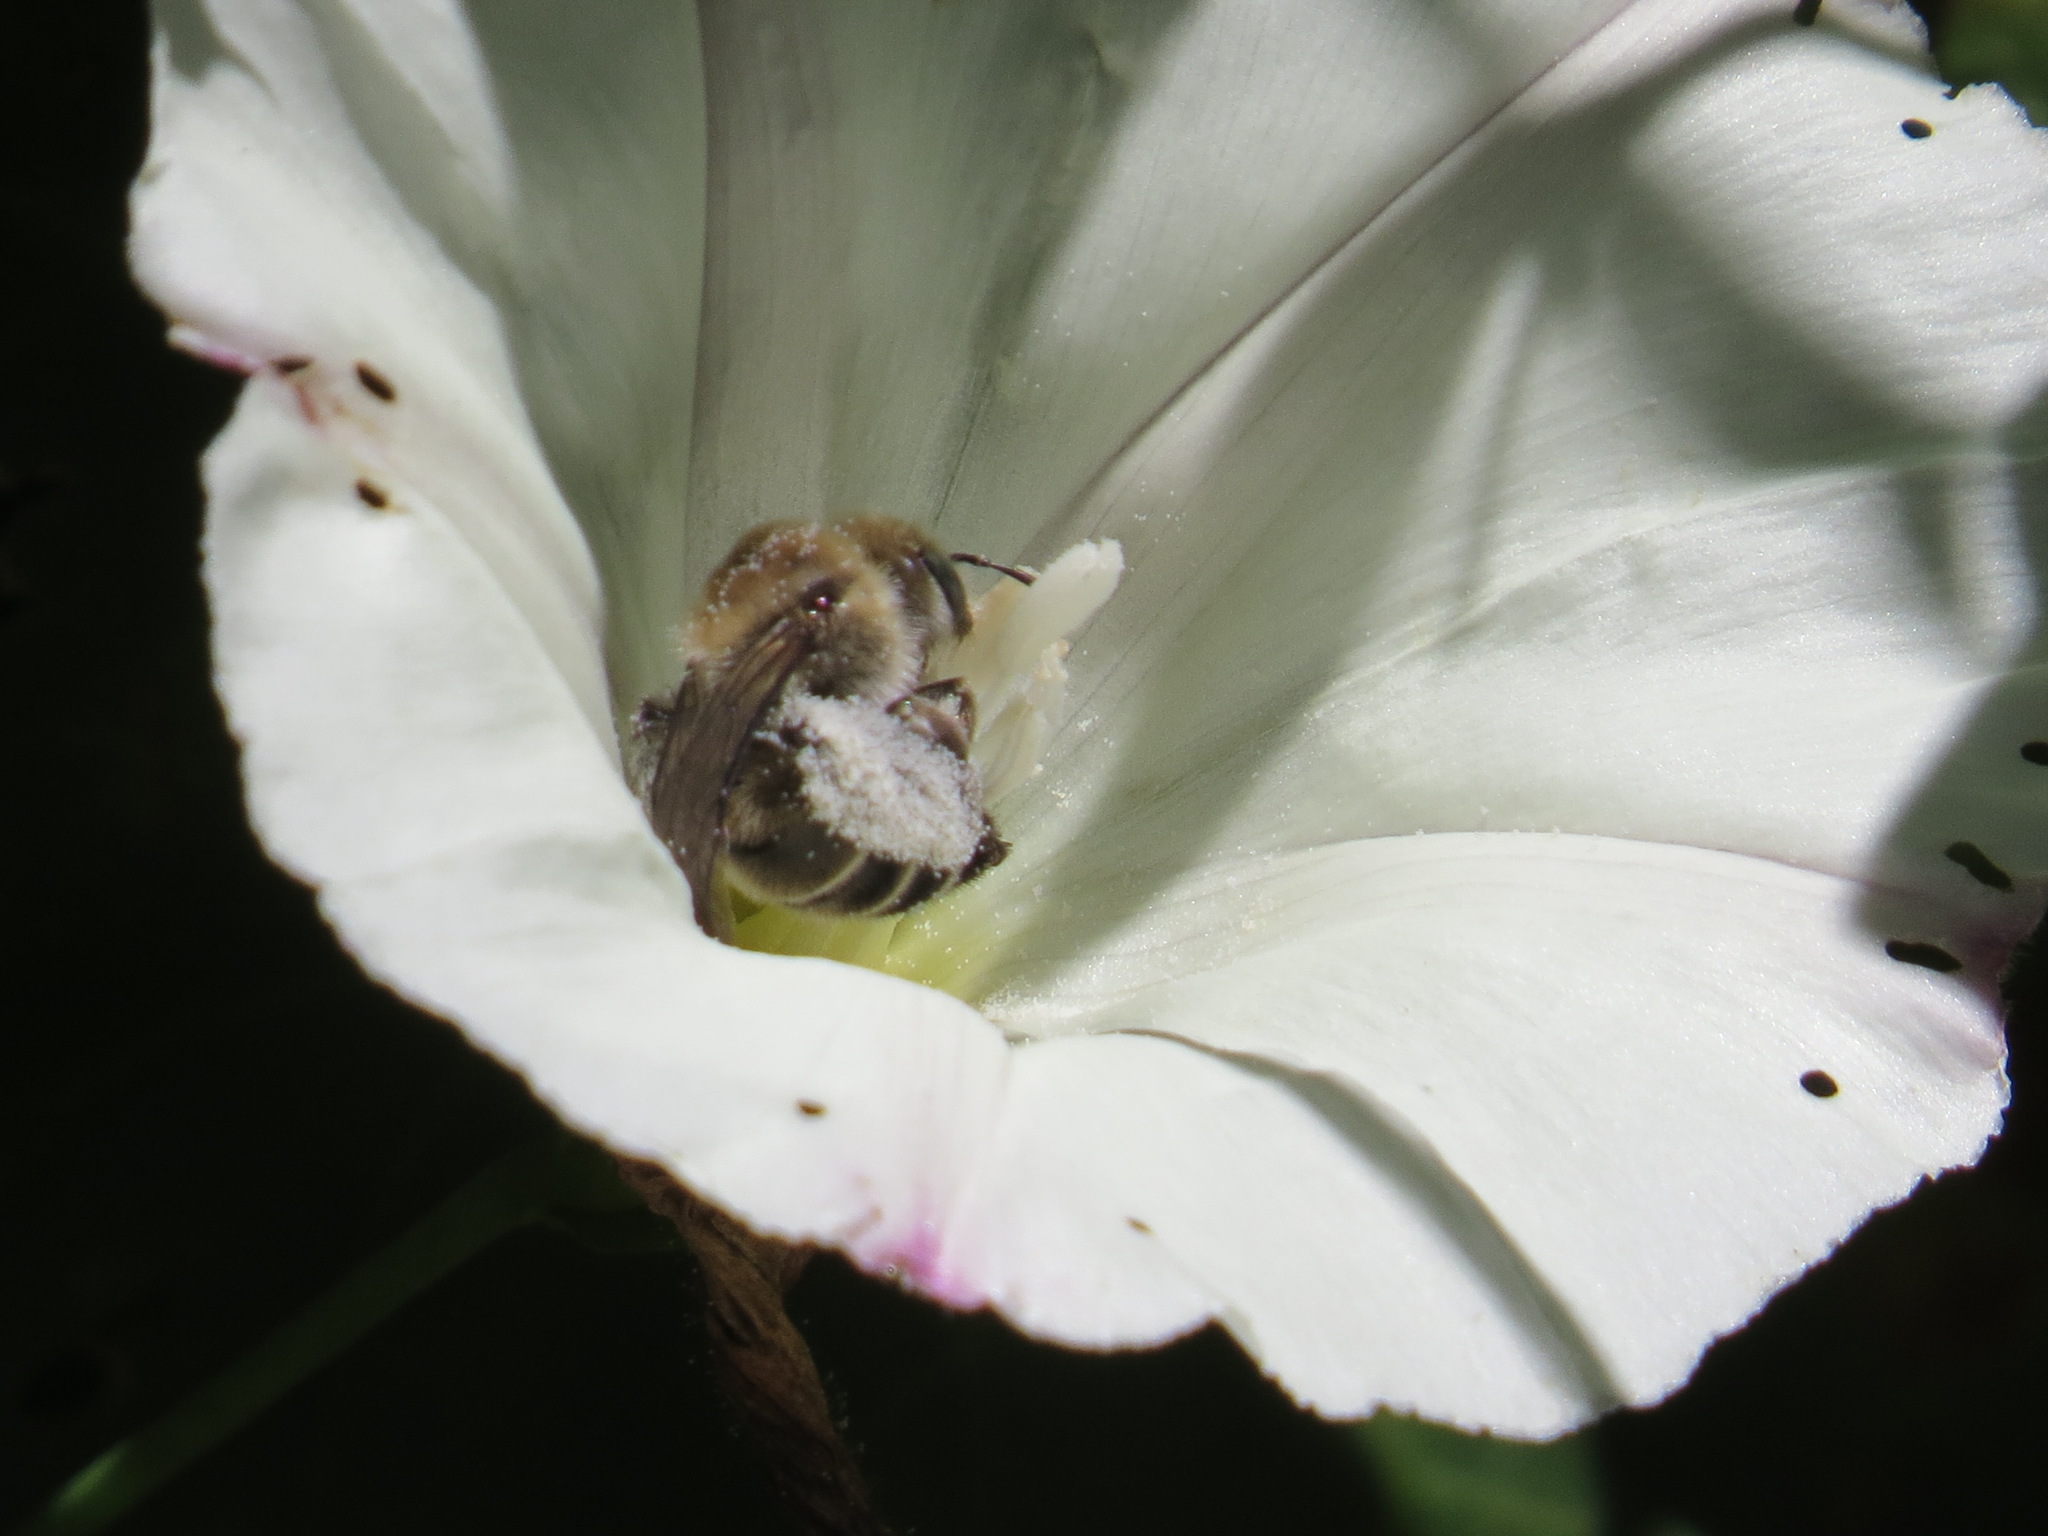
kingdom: Animalia
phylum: Arthropoda
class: Insecta
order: Hymenoptera
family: Apidae
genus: Diadasia
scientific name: Diadasia bituberculata
